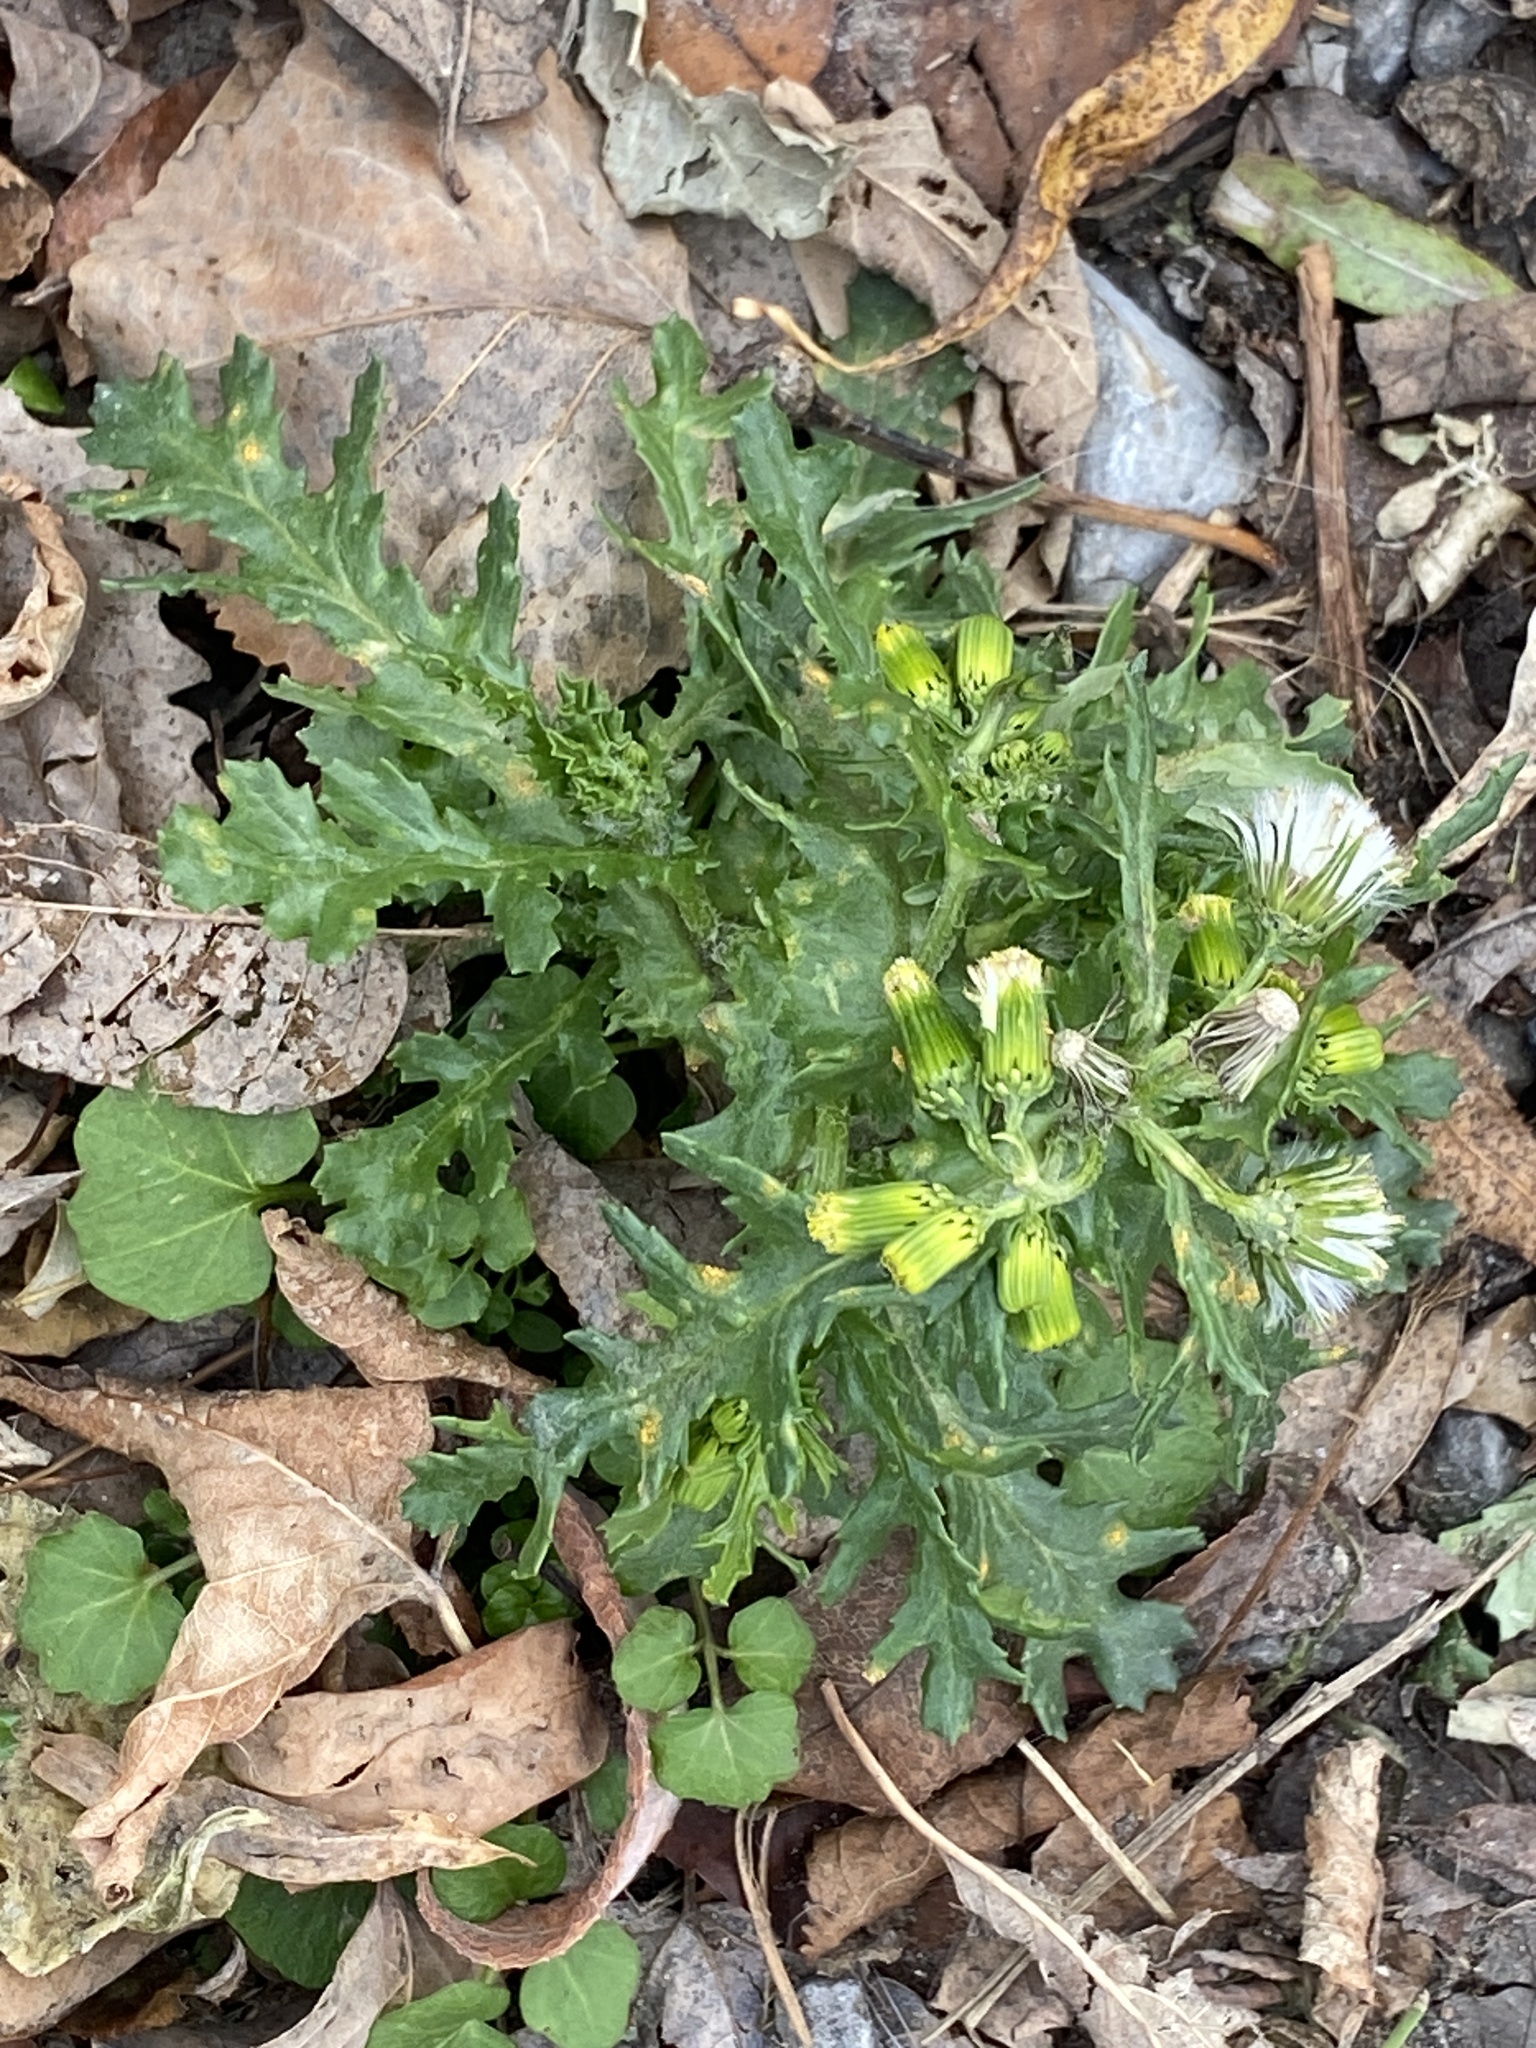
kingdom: Plantae
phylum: Tracheophyta
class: Magnoliopsida
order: Asterales
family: Asteraceae
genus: Senecio
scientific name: Senecio vulgaris
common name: Old-man-in-the-spring
